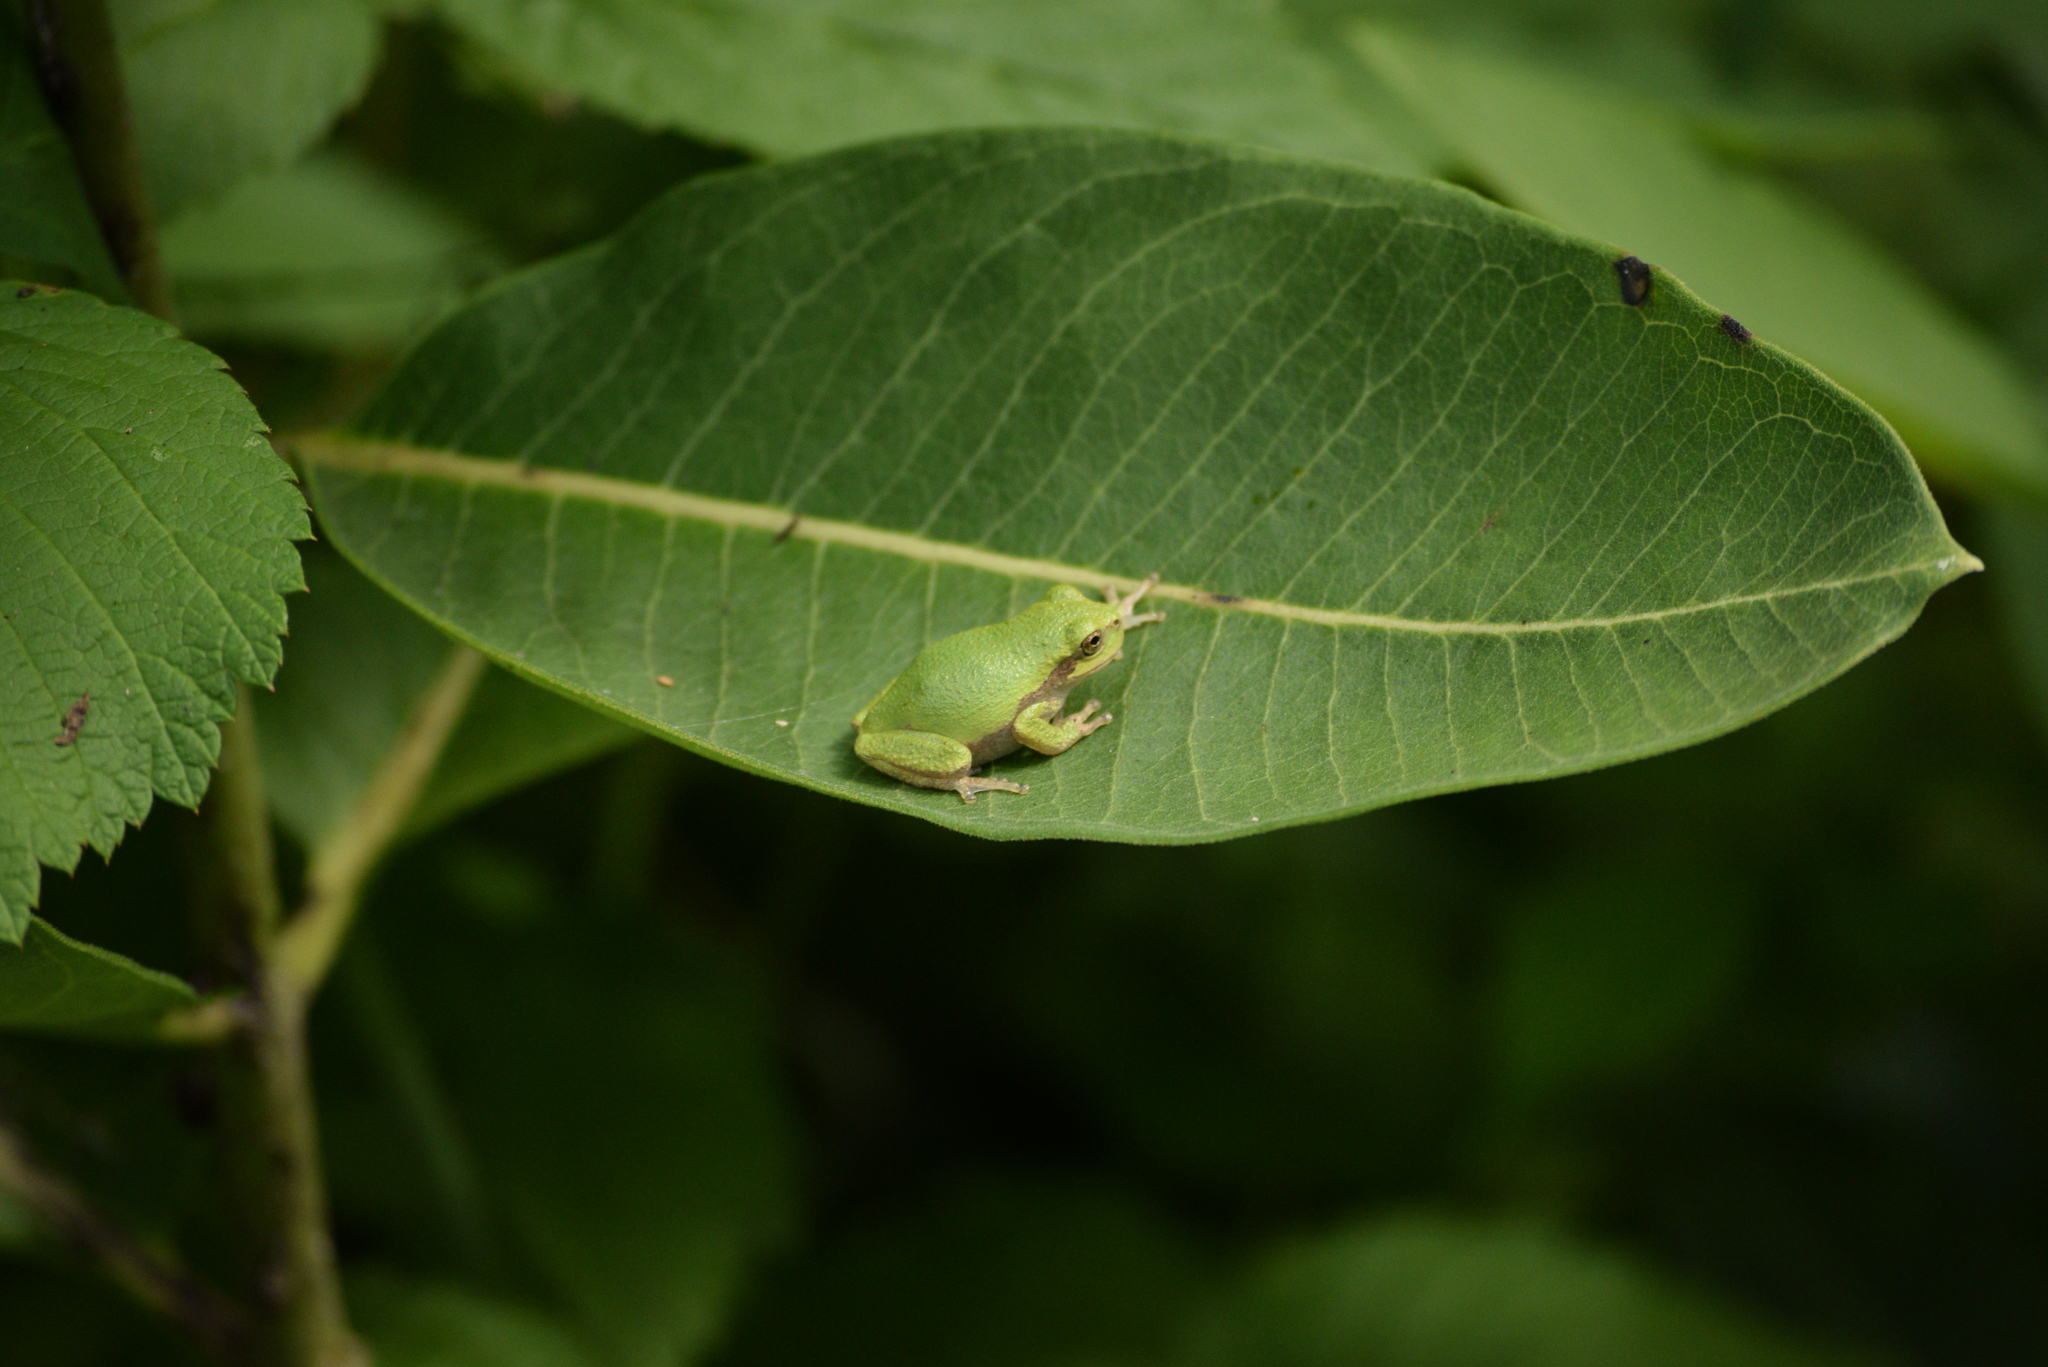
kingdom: Animalia
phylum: Chordata
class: Amphibia
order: Anura
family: Hylidae
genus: Hyla
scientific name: Hyla
